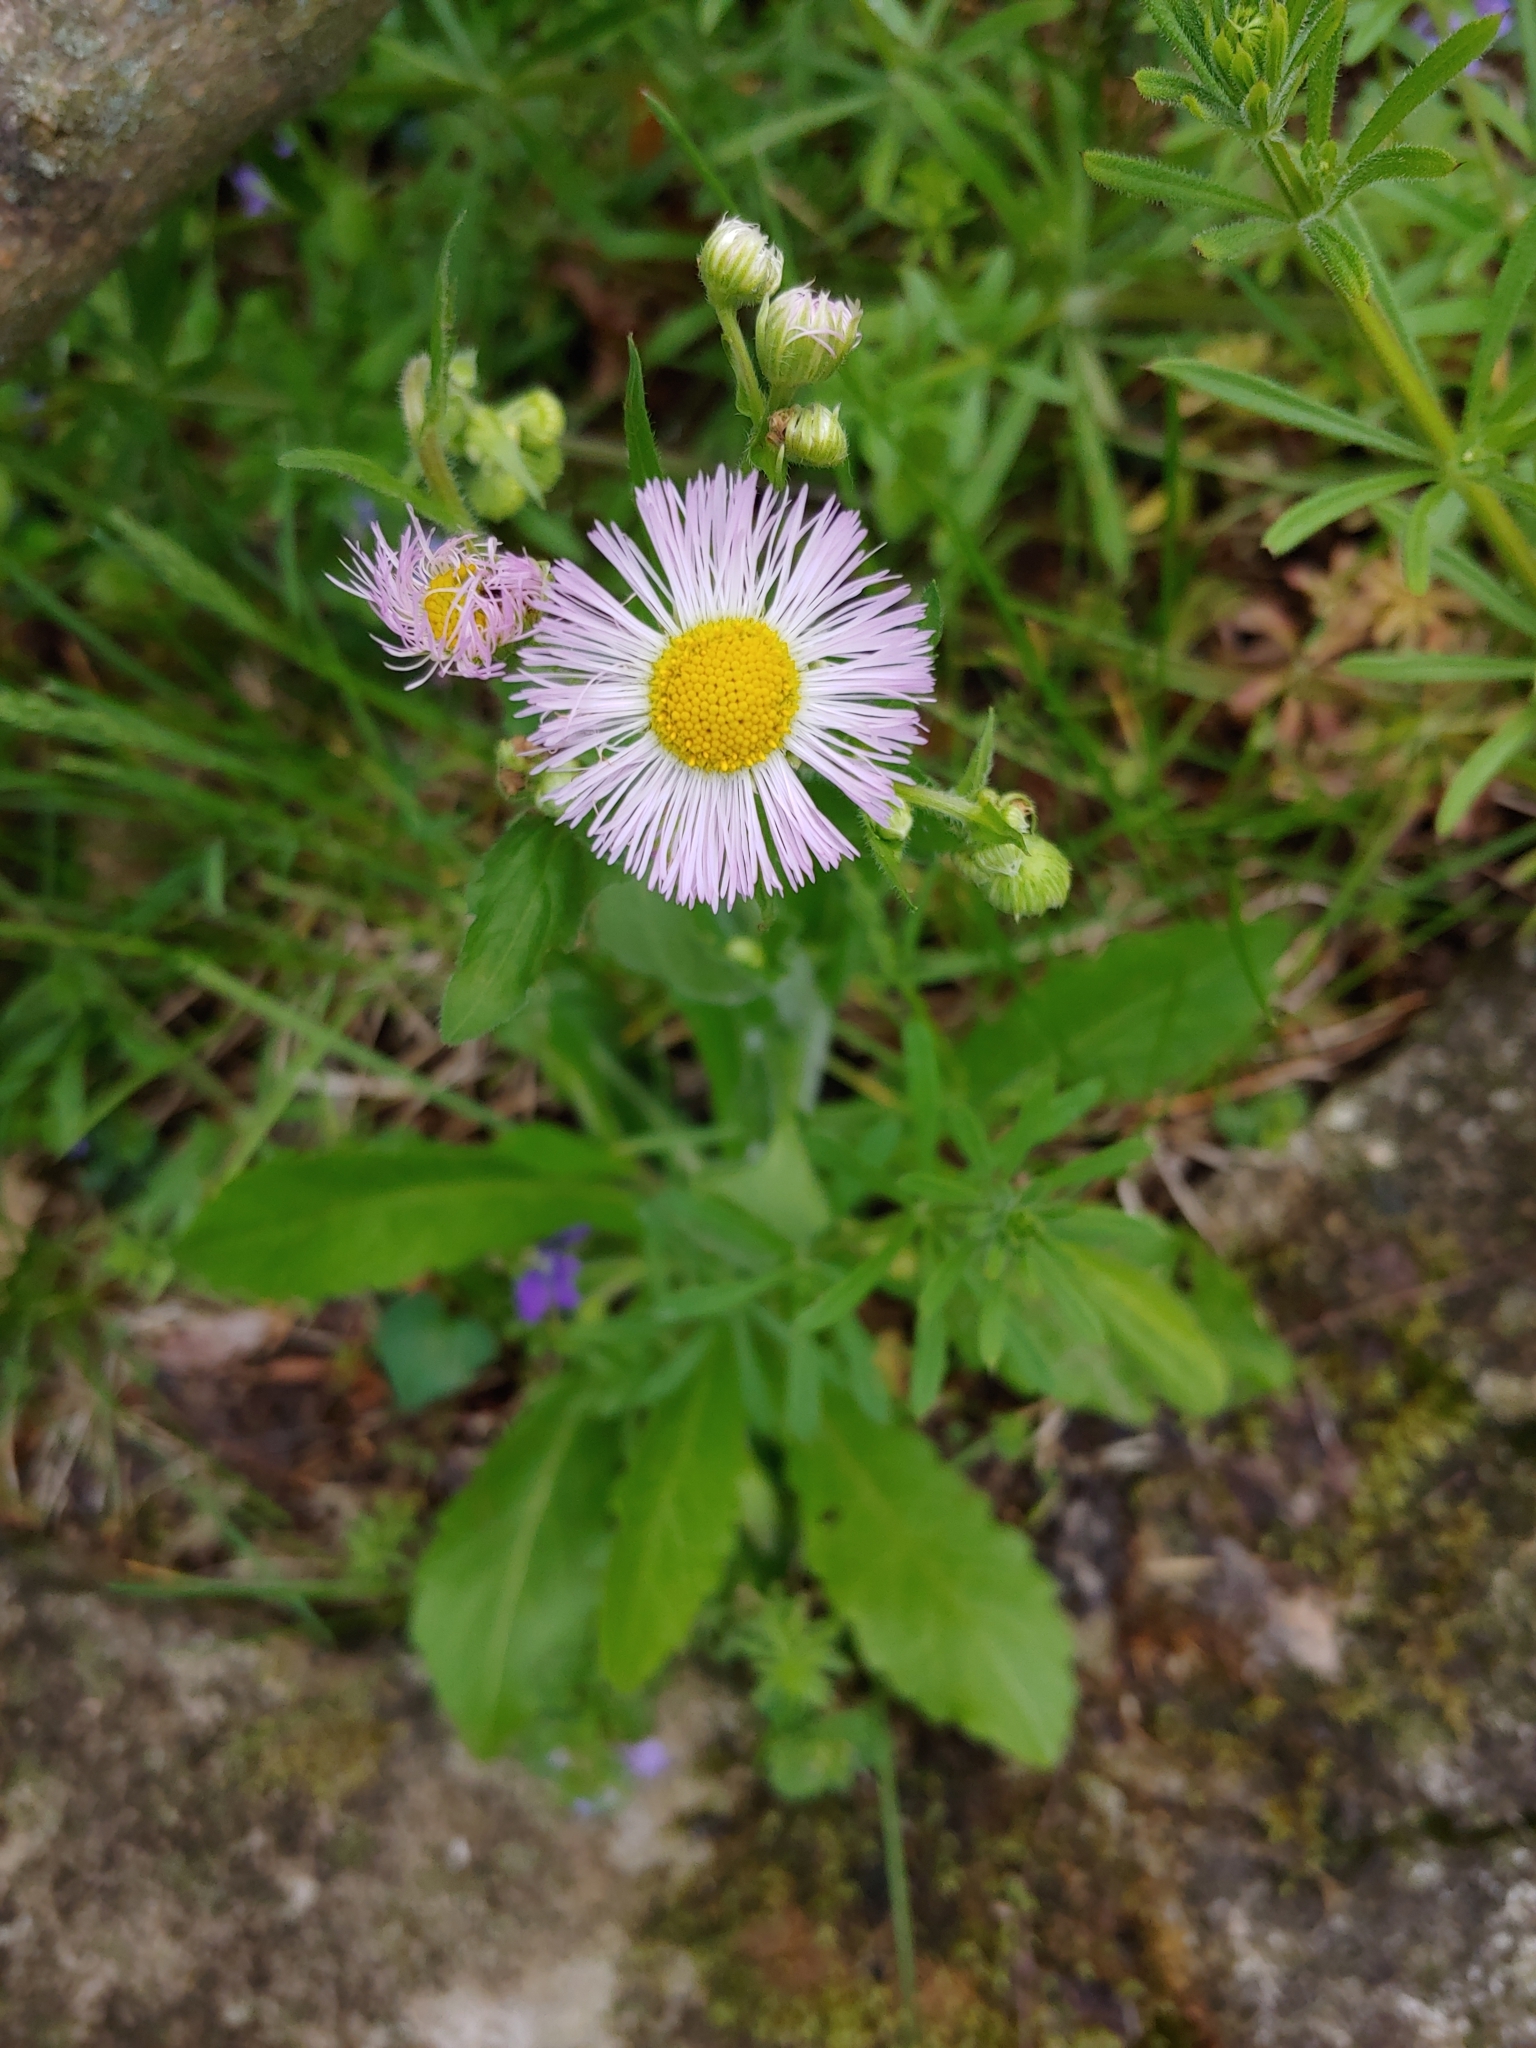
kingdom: Plantae
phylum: Tracheophyta
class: Magnoliopsida
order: Asterales
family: Asteraceae
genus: Erigeron
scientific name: Erigeron philadelphicus
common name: Robin's-plantain
